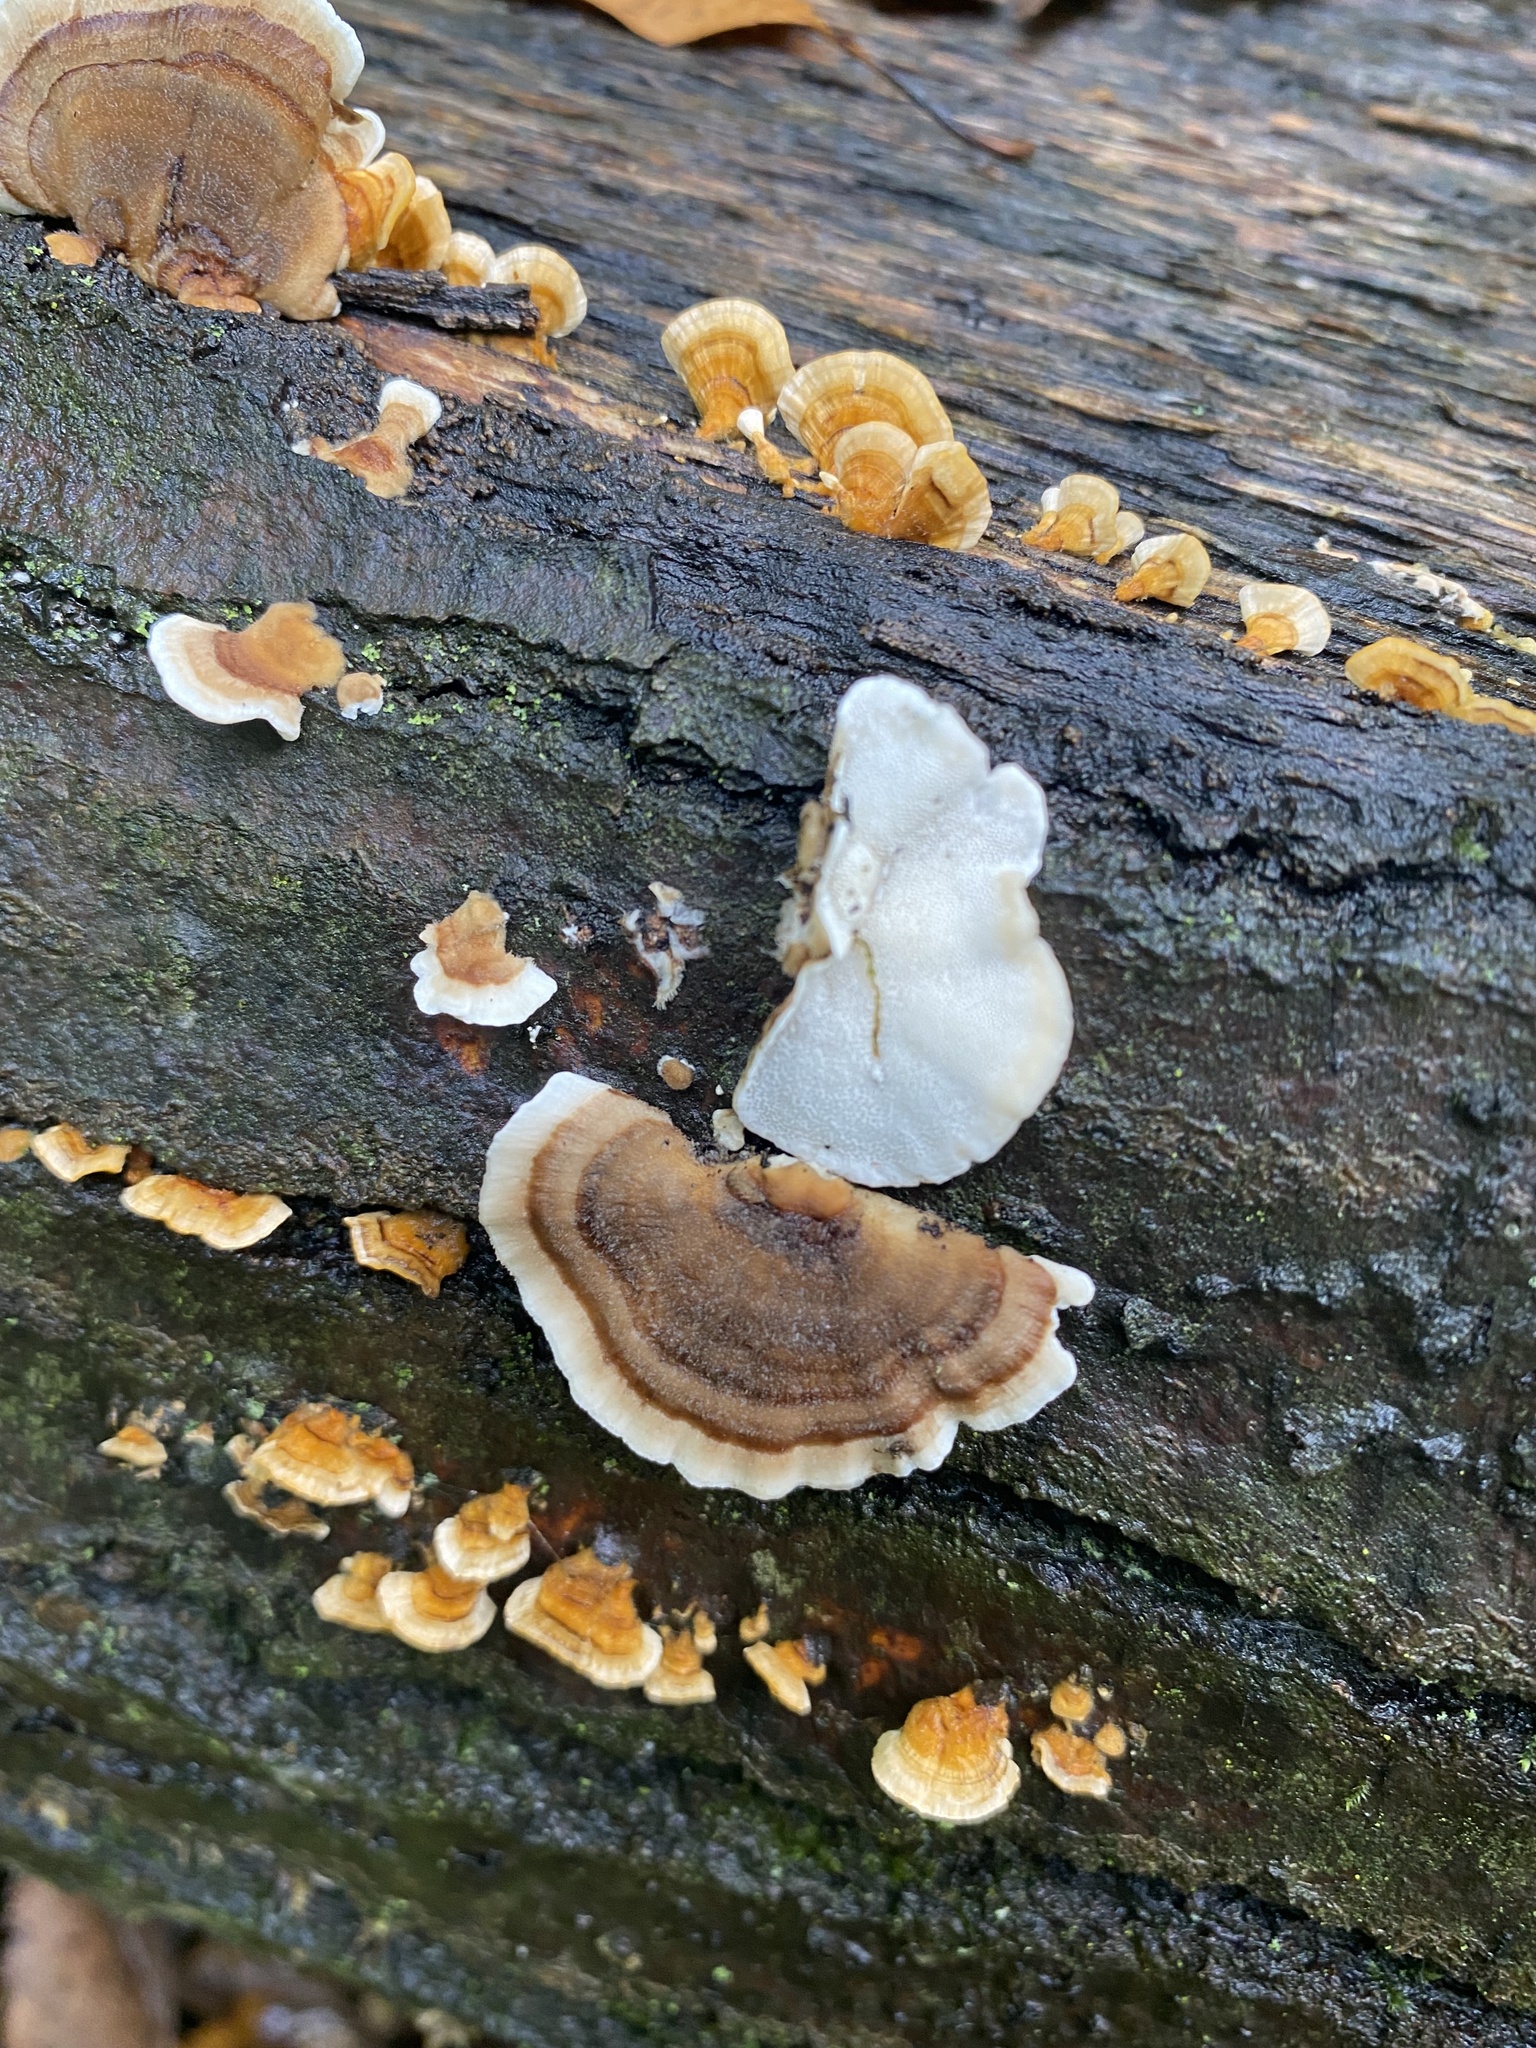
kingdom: Fungi
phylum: Basidiomycota
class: Agaricomycetes
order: Polyporales
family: Polyporaceae
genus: Trametes
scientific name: Trametes versicolor
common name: Turkeytail
